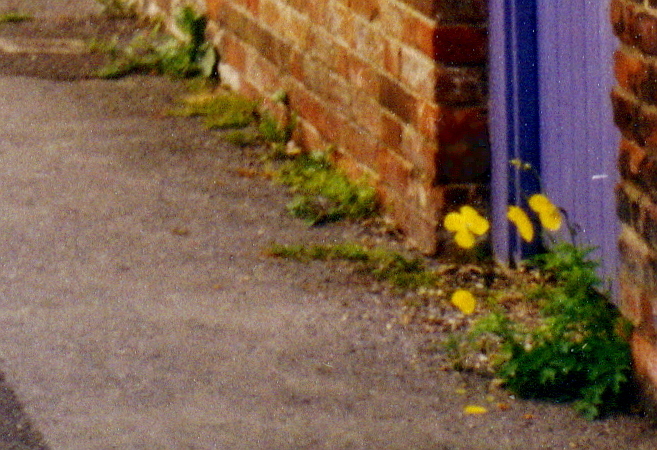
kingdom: Plantae
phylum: Tracheophyta
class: Magnoliopsida
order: Ranunculales
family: Papaveraceae
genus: Papaver
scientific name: Papaver cambricum
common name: Poppy
